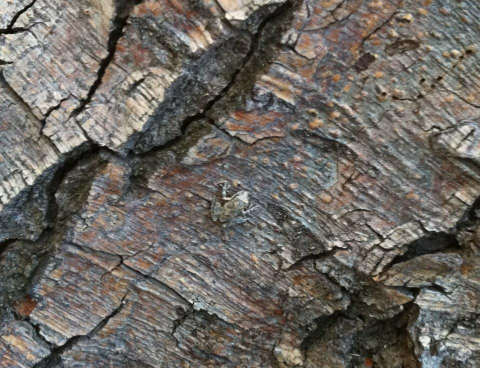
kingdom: Animalia
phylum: Chordata
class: Amphibia
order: Anura
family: Hylidae
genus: Pseudacris
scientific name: Pseudacris regilla
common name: Pacific chorus frog
